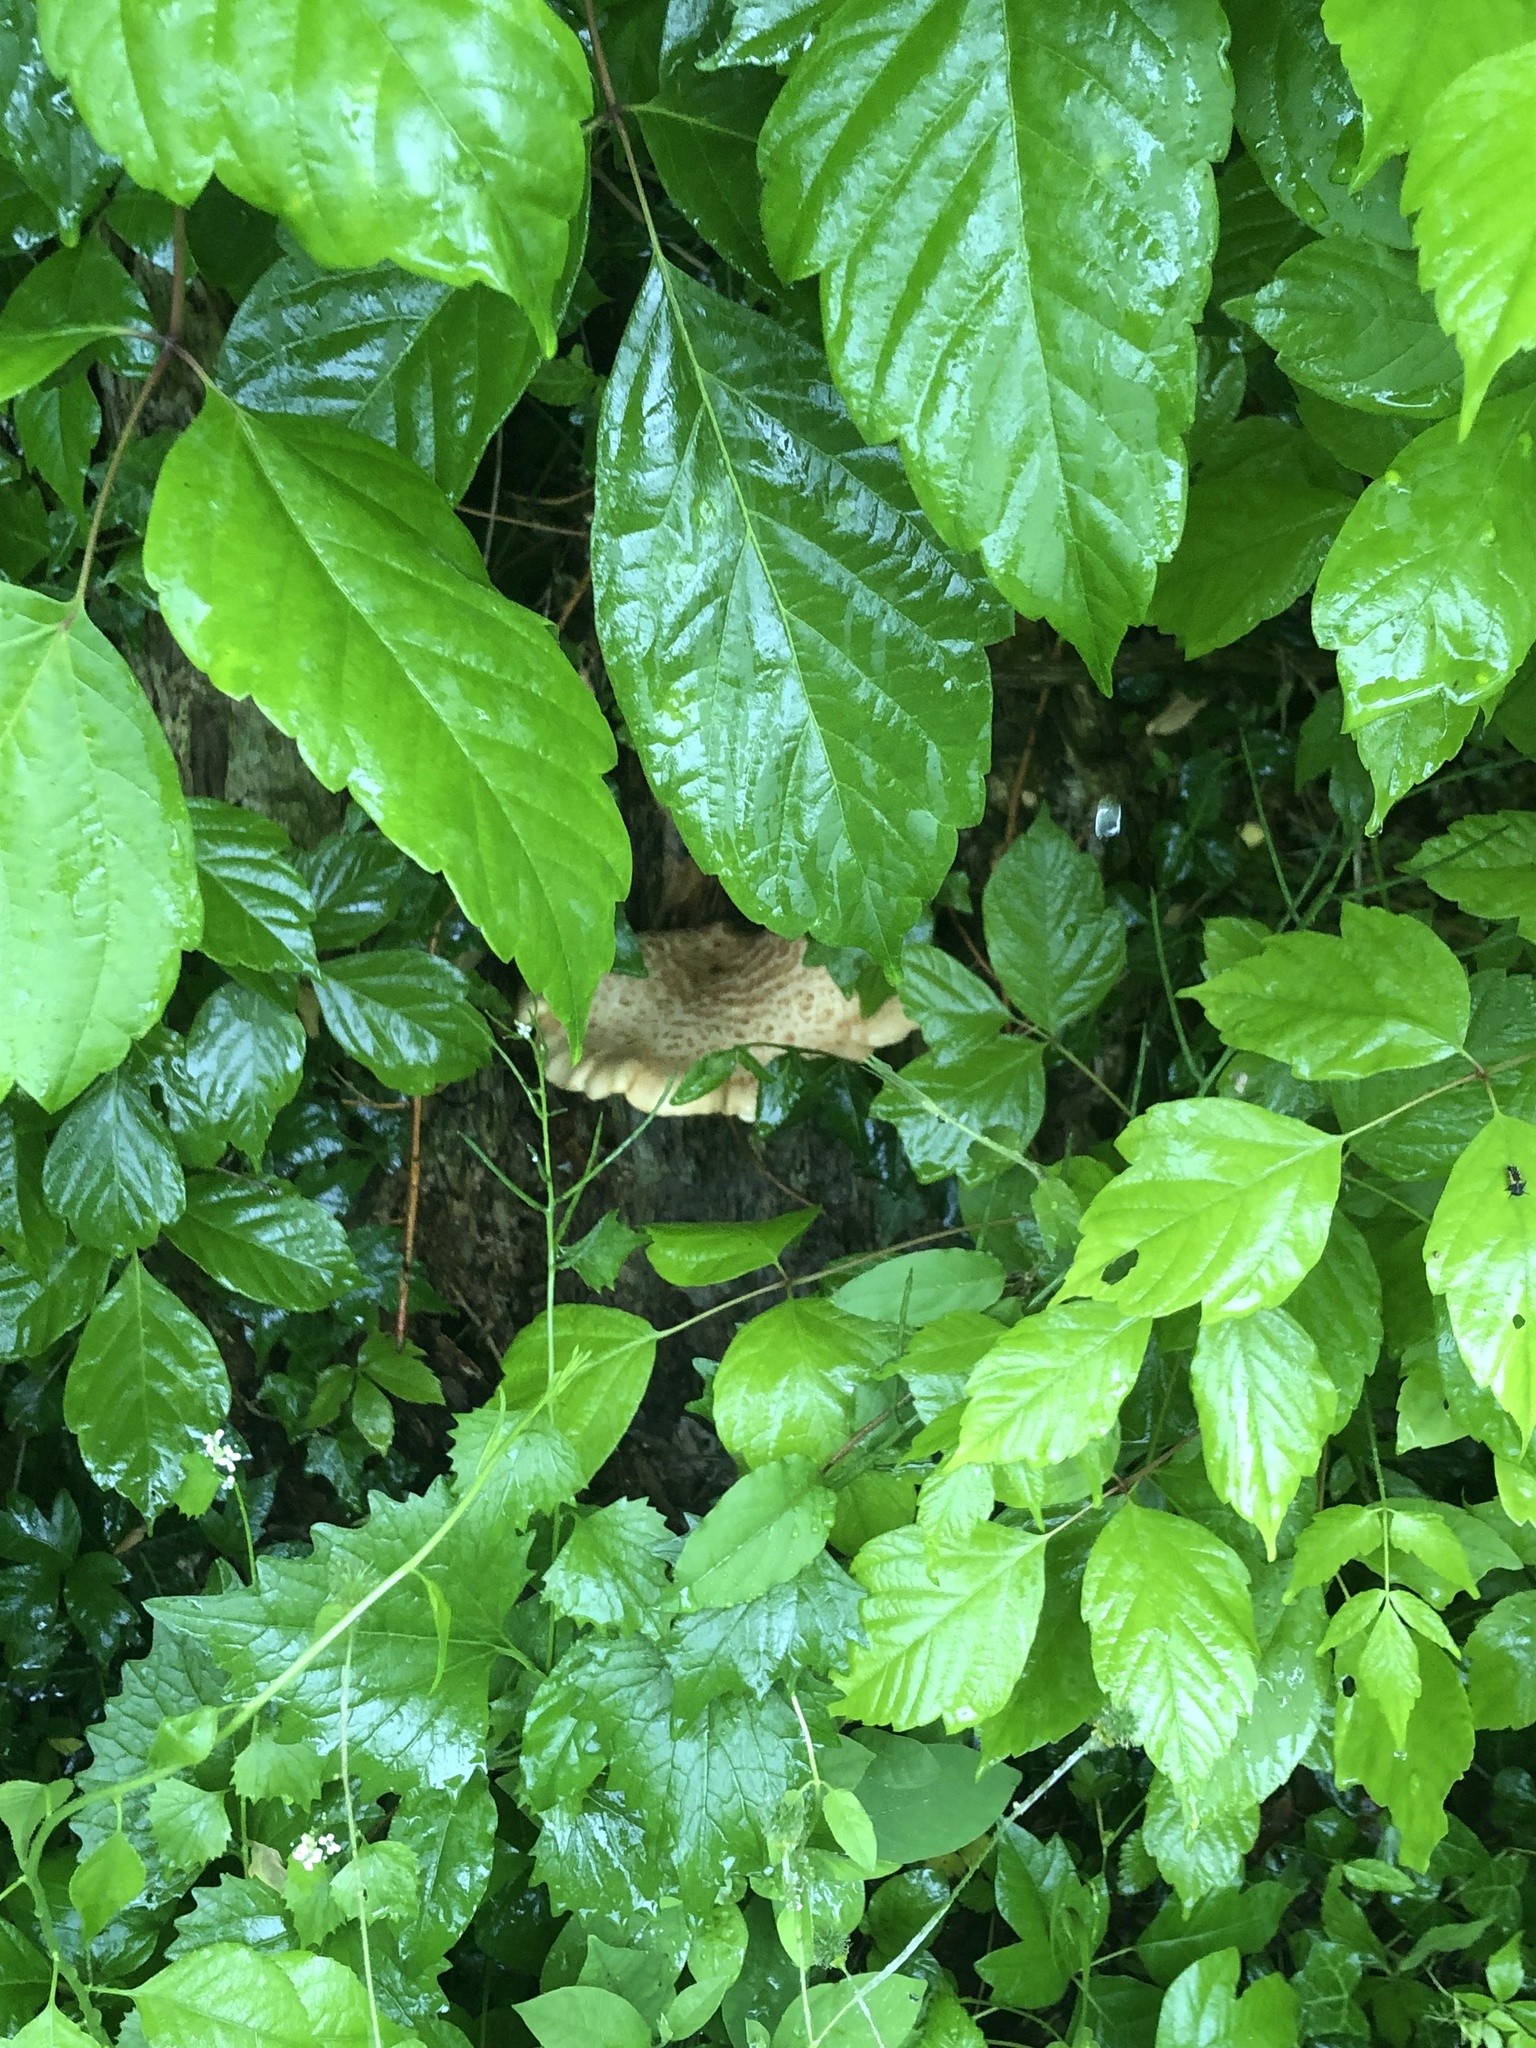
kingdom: Fungi
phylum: Basidiomycota
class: Agaricomycetes
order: Polyporales
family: Polyporaceae
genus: Cerioporus
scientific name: Cerioporus squamosus
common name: Dryad's saddle
